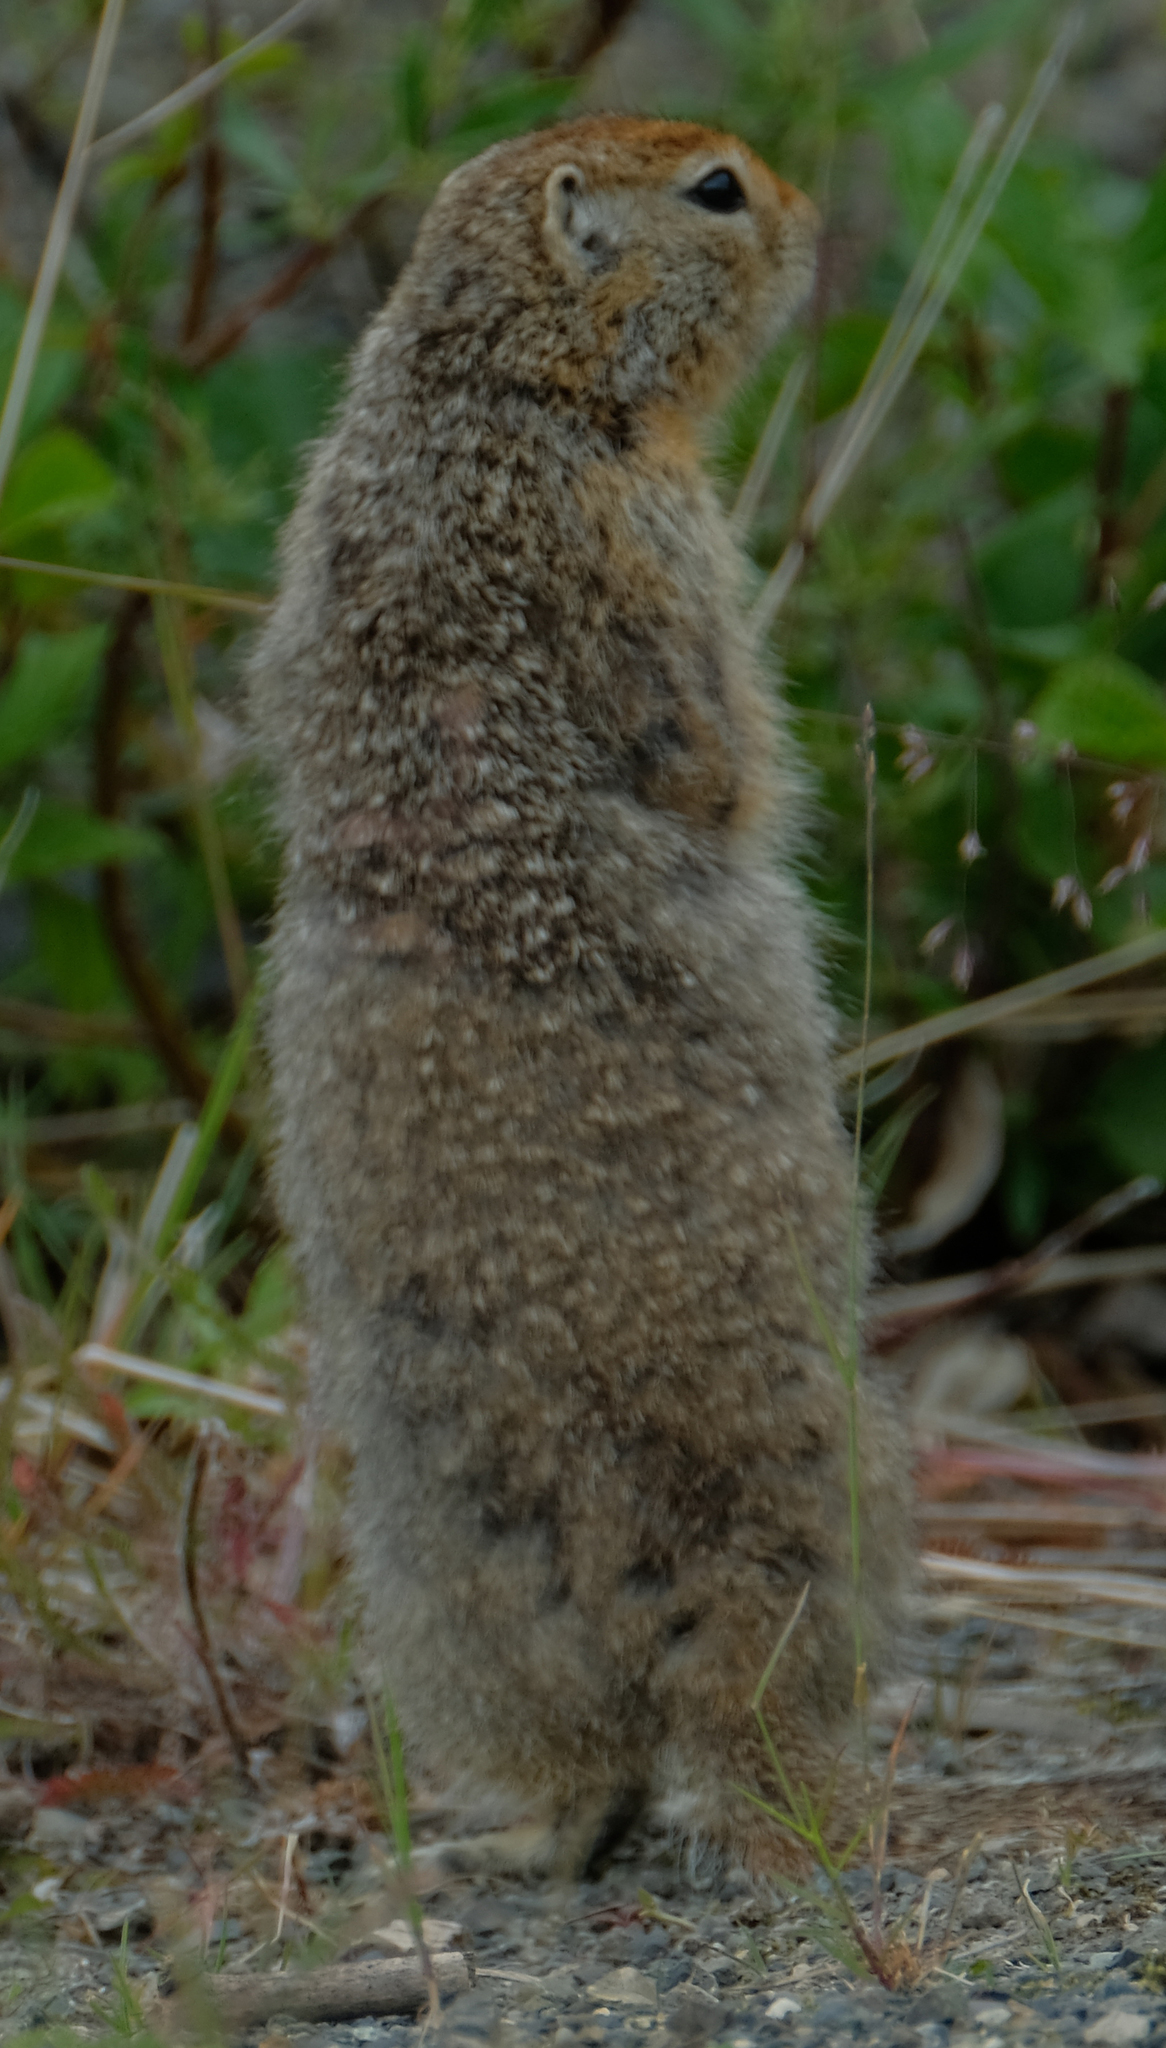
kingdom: Animalia
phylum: Chordata
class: Mammalia
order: Rodentia
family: Sciuridae
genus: Urocitellus
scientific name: Urocitellus parryii
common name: Arctic ground squirrel
